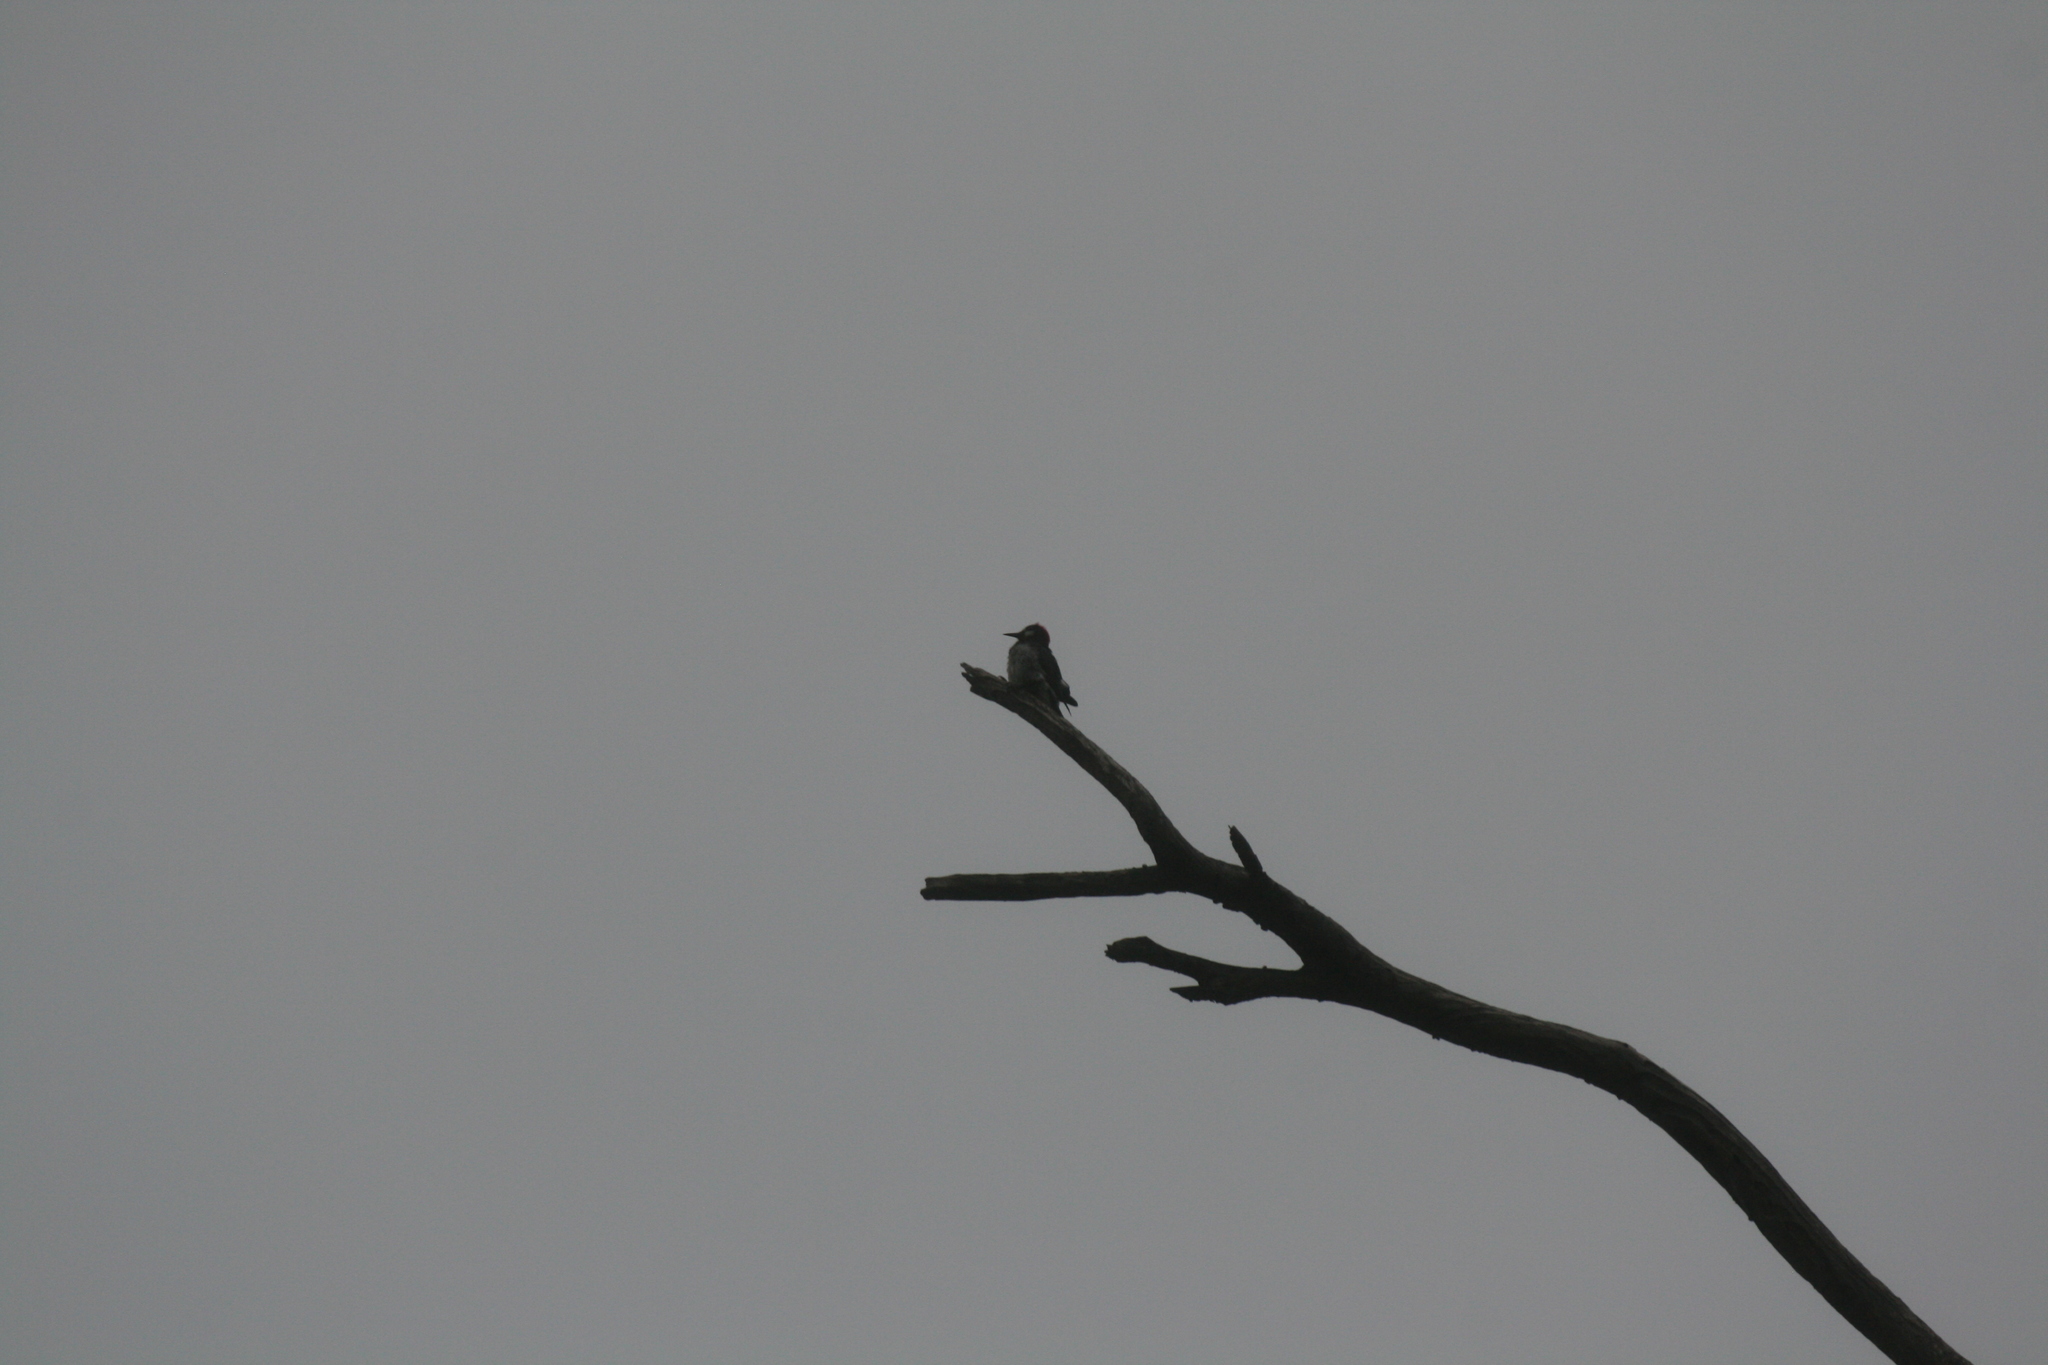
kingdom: Animalia
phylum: Chordata
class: Aves
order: Piciformes
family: Picidae
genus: Melanerpes
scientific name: Melanerpes formicivorus
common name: Acorn woodpecker
